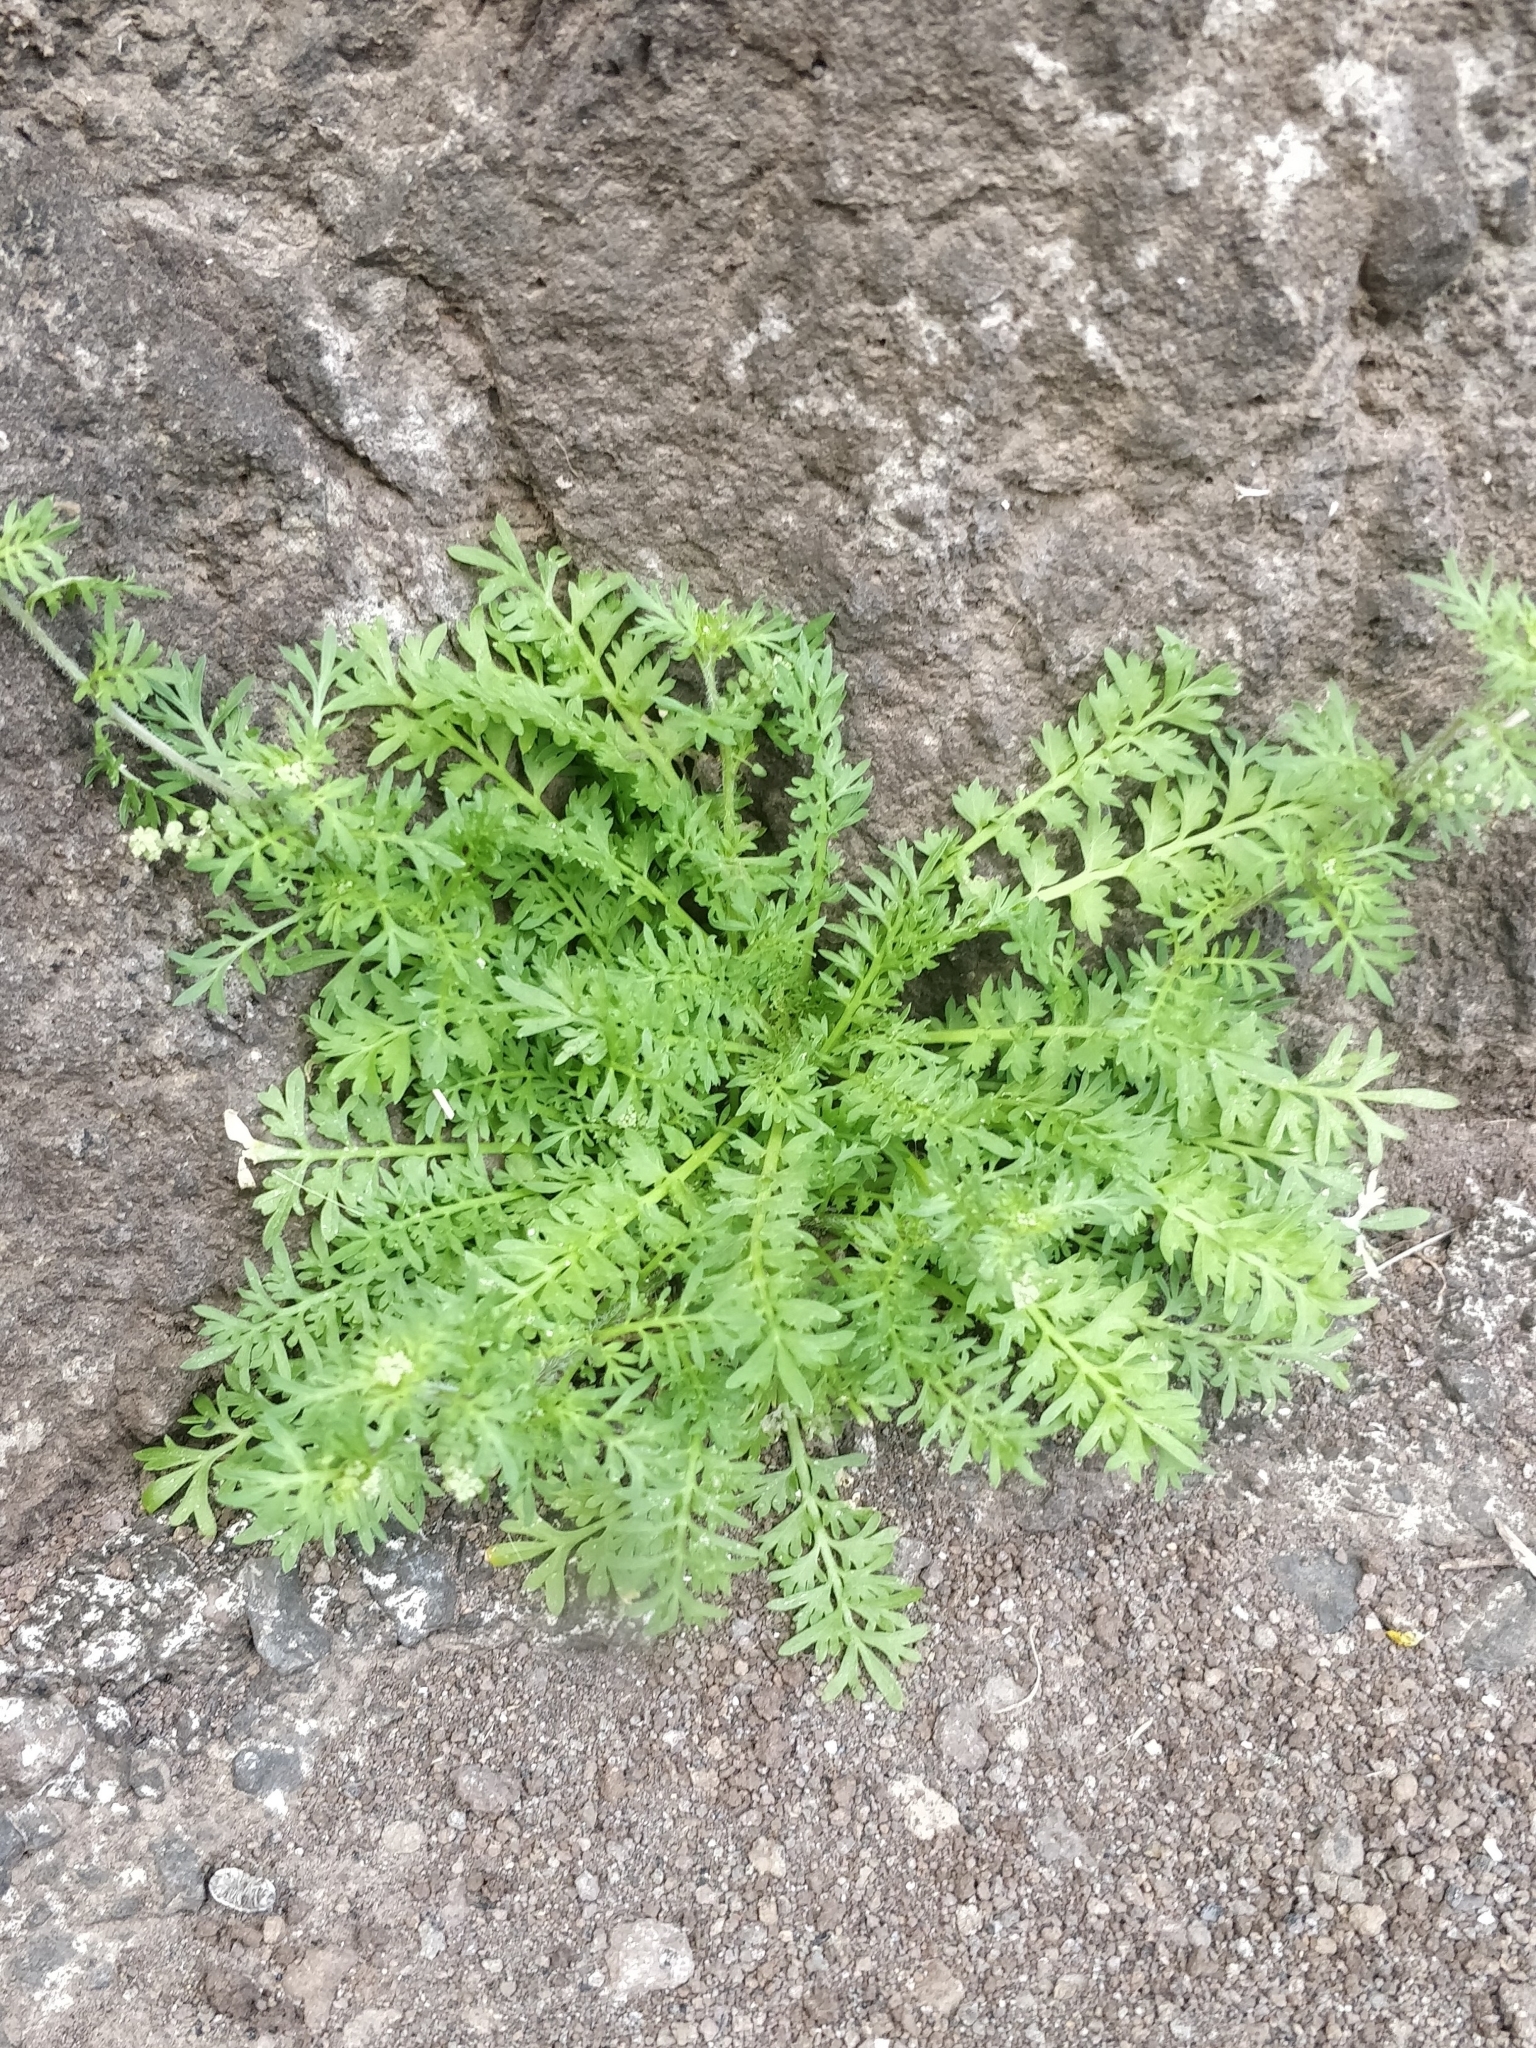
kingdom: Plantae
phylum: Tracheophyta
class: Magnoliopsida
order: Asterales
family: Asteraceae
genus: Cotula
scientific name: Cotula australis
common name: Australian waterbuttons
